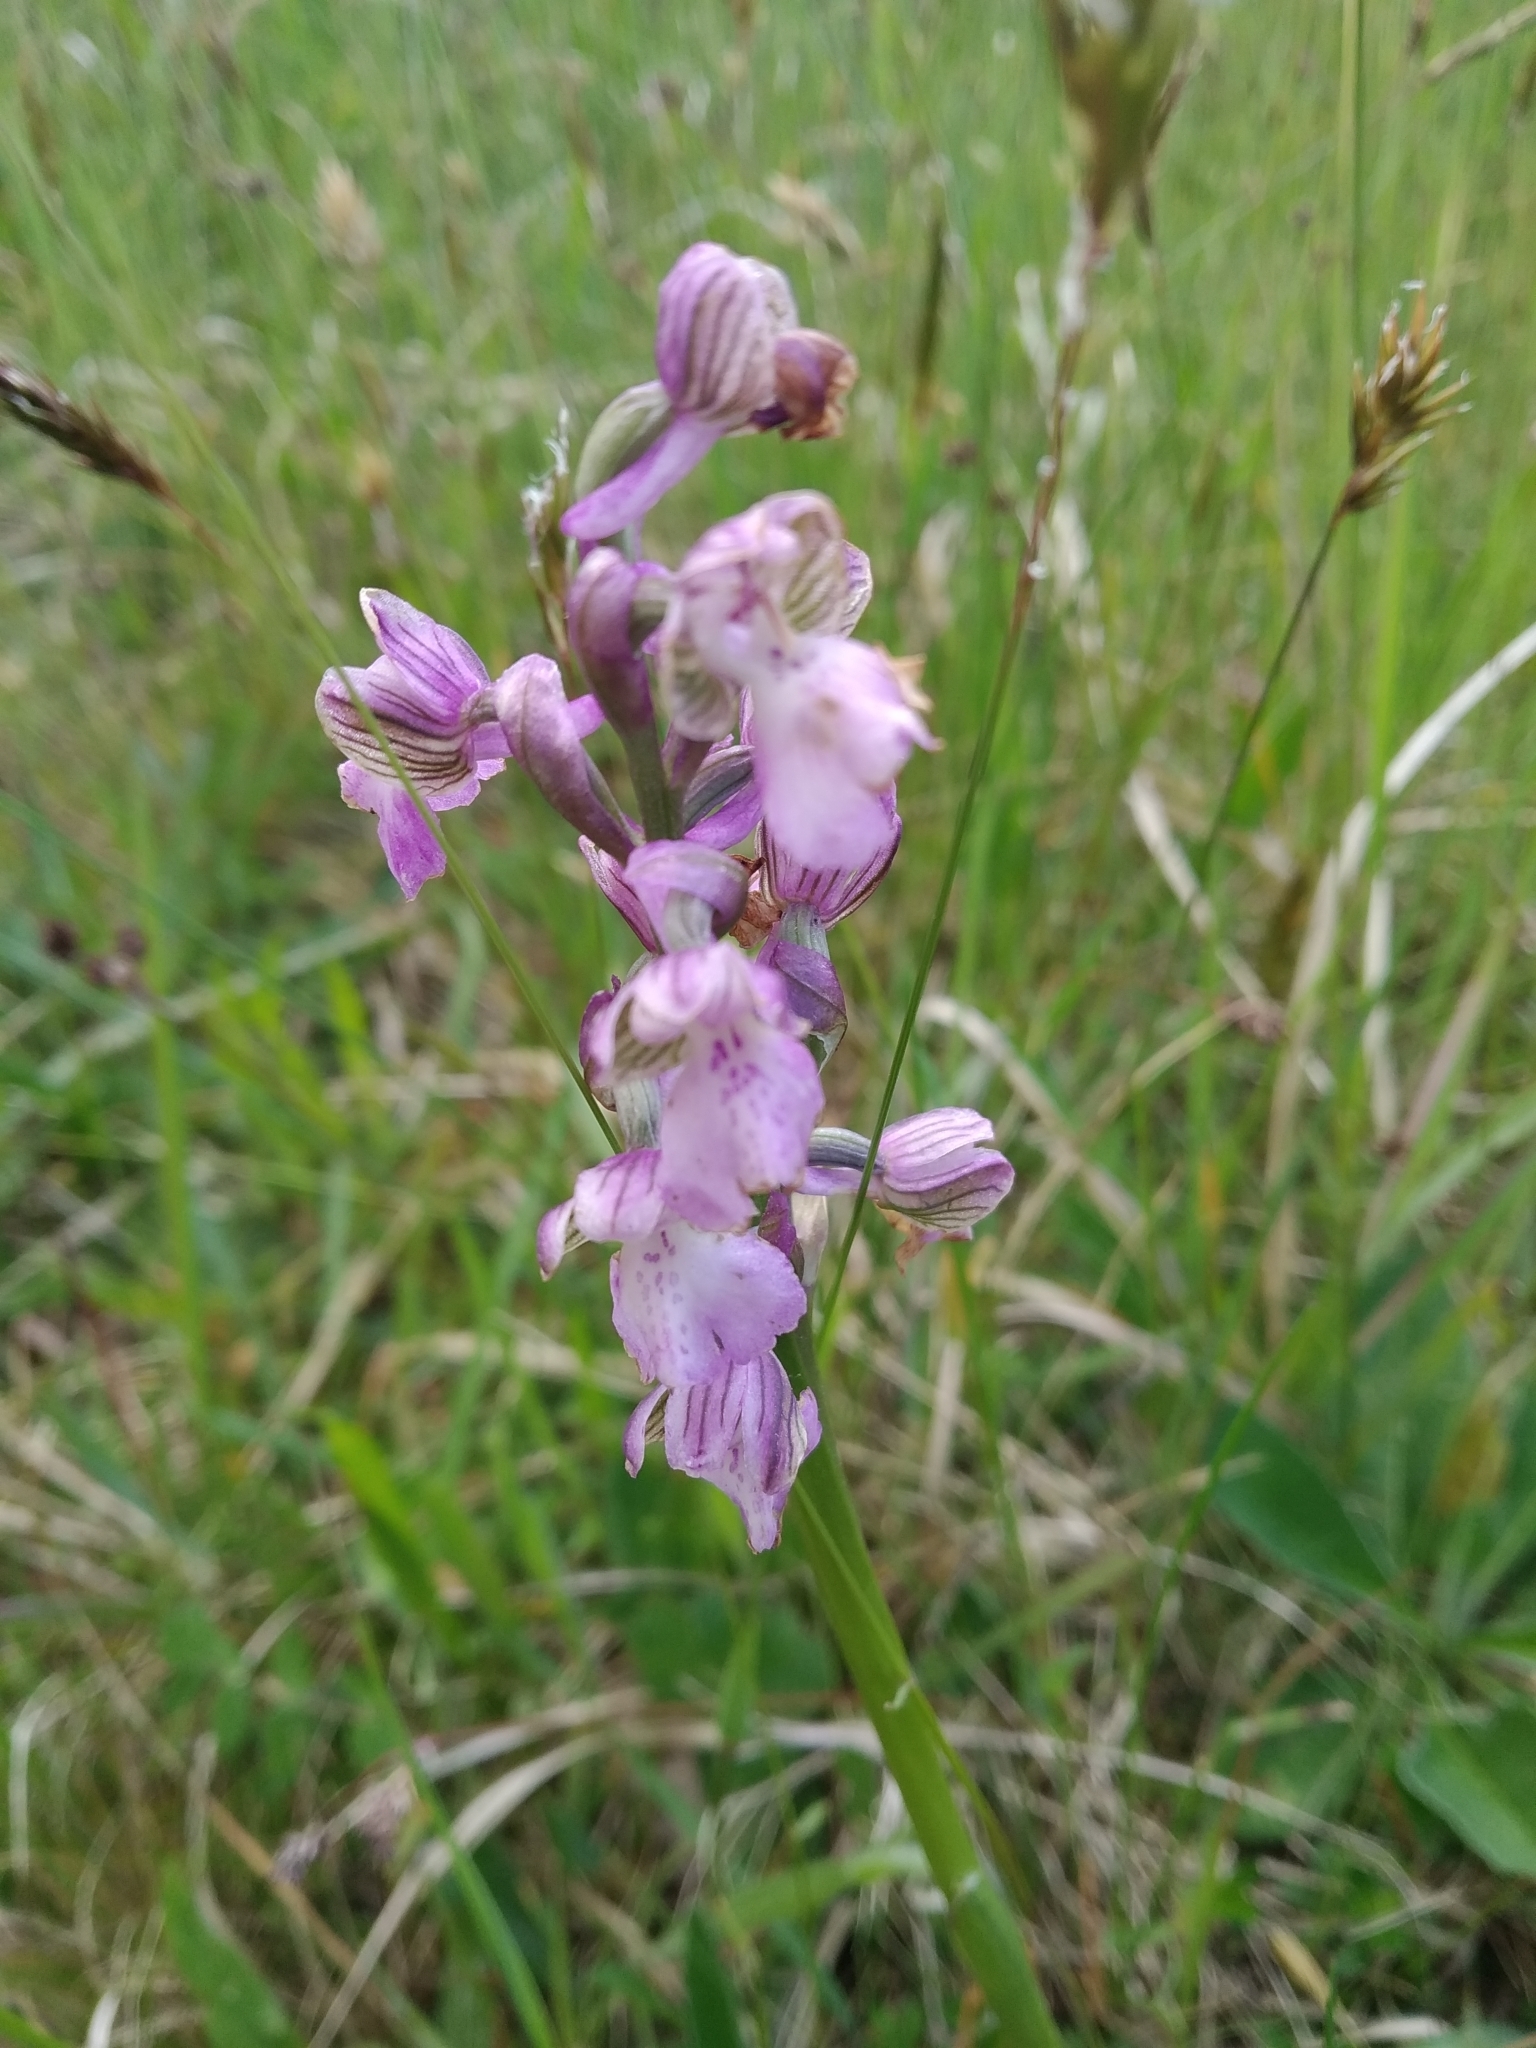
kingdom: Plantae
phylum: Tracheophyta
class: Liliopsida
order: Asparagales
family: Orchidaceae
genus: Anacamptis
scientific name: Anacamptis morio
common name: Green-winged orchid
